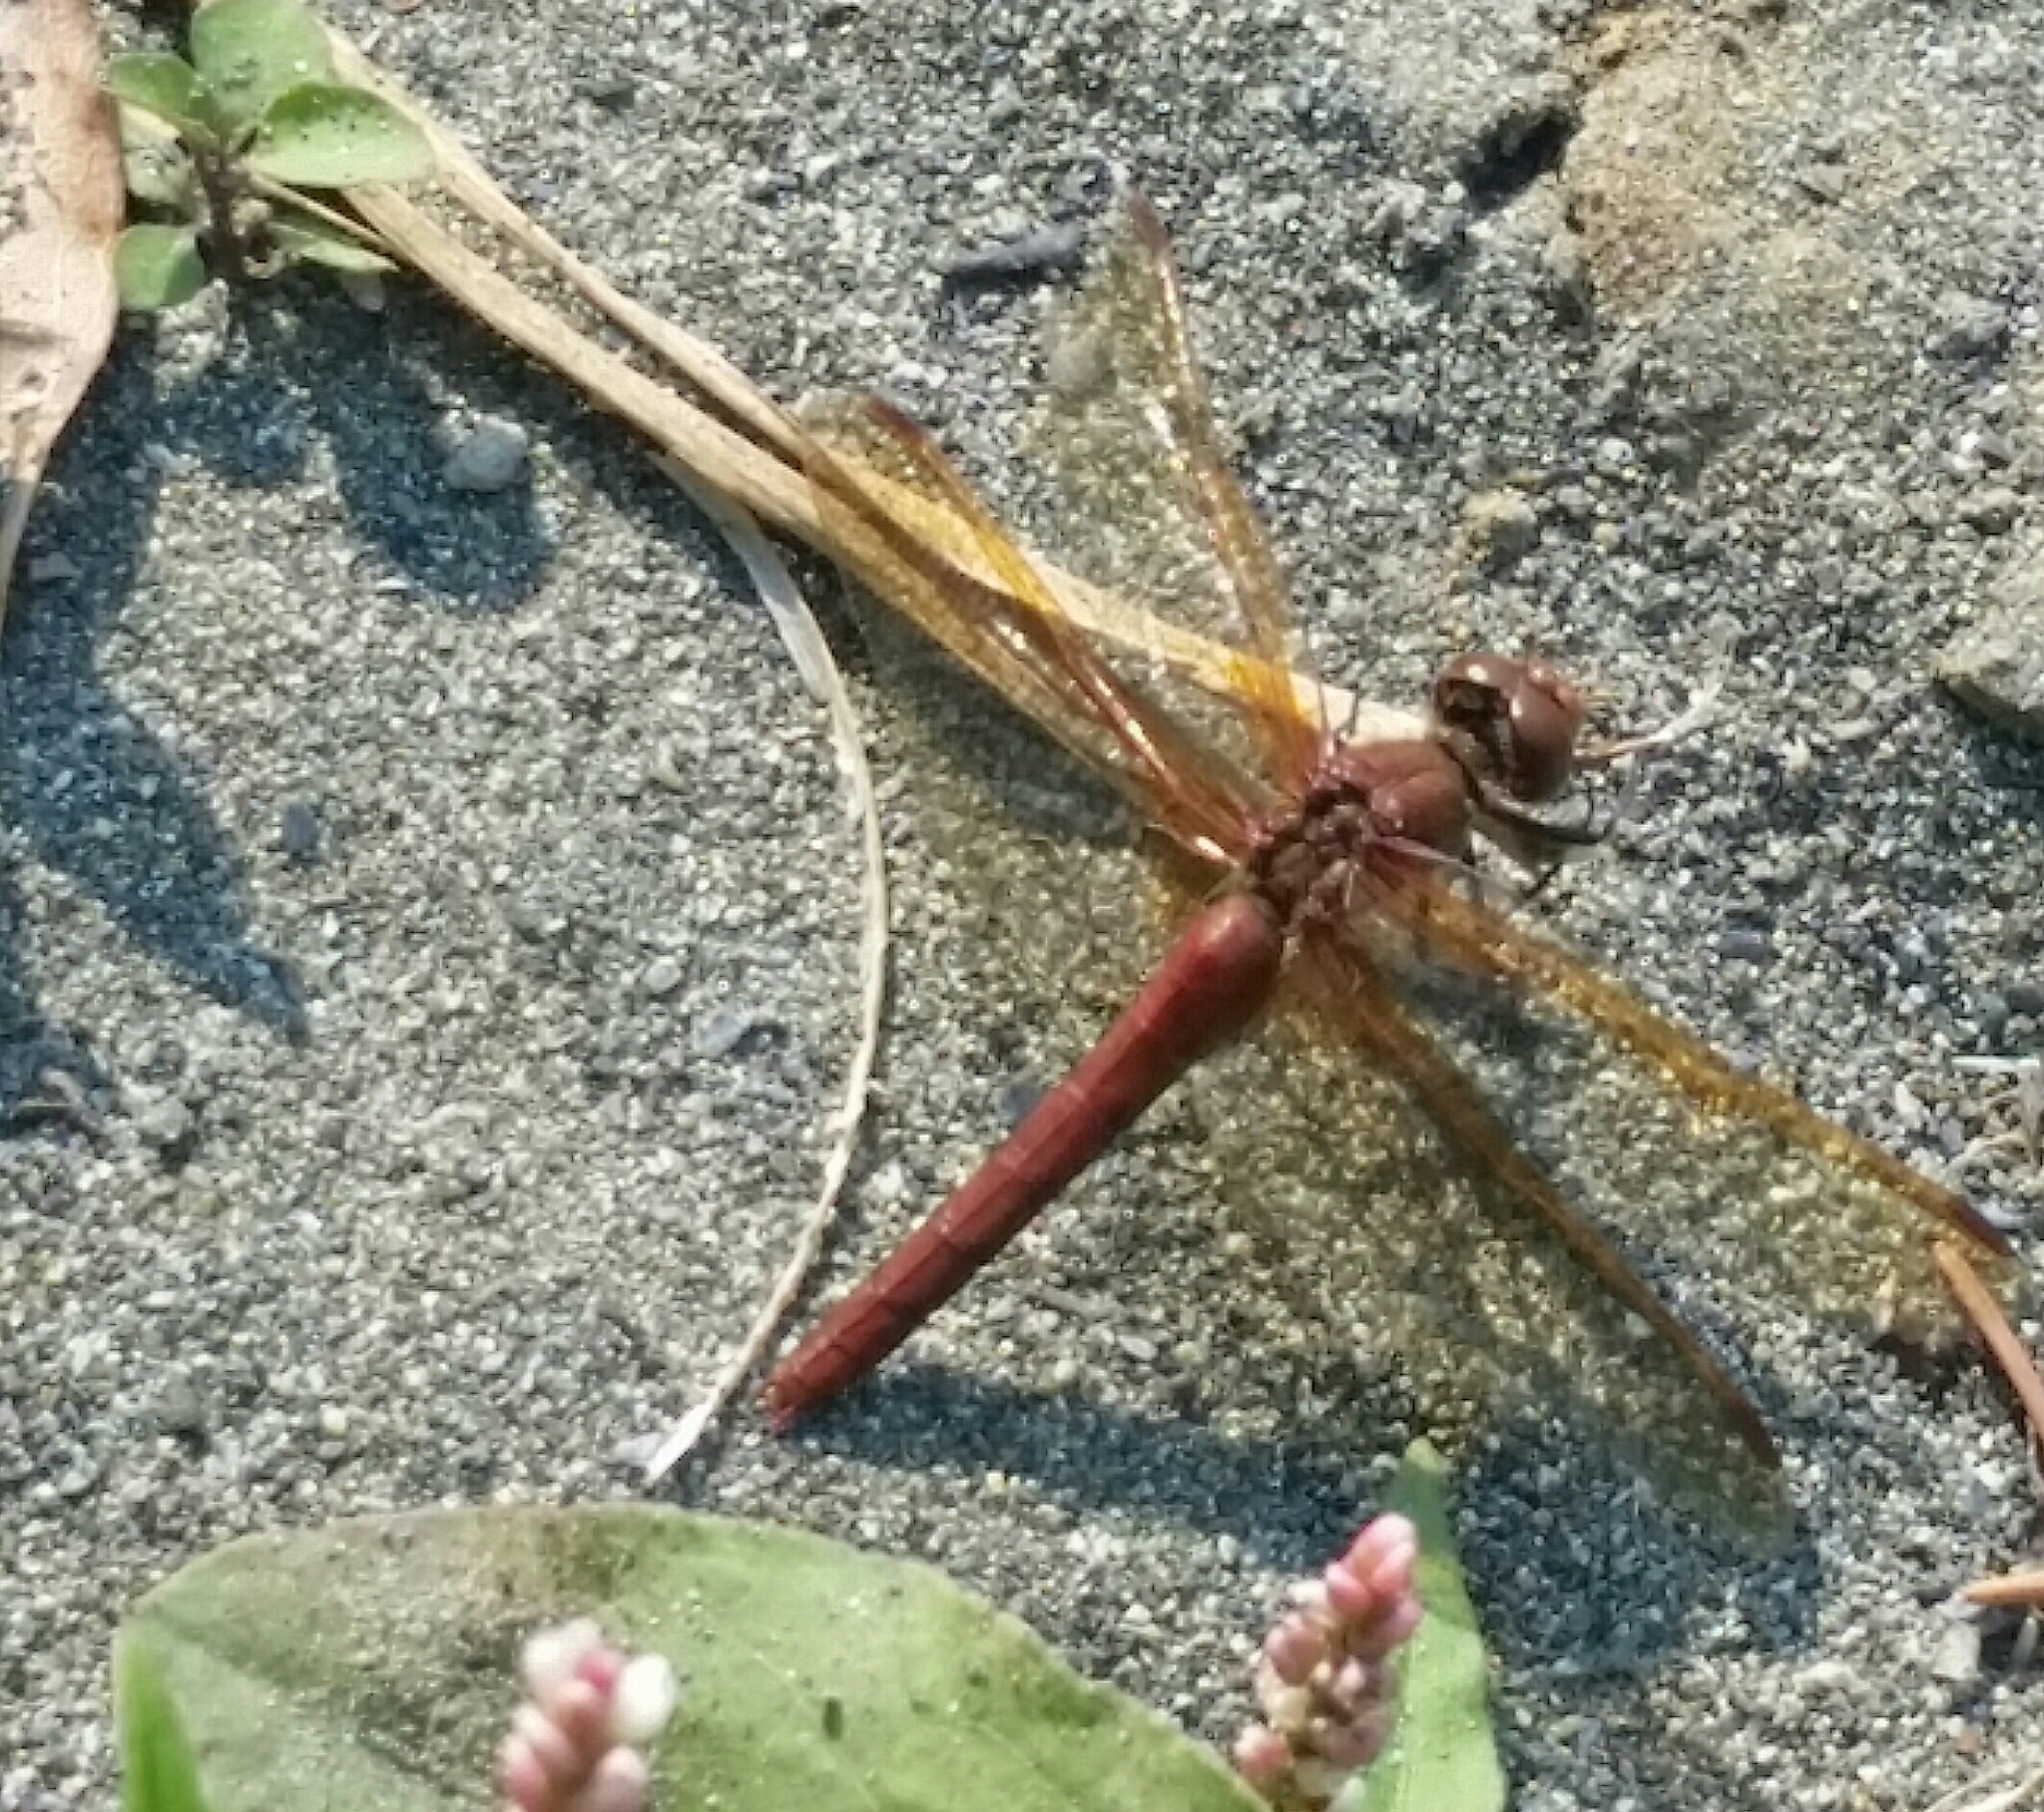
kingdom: Animalia
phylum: Arthropoda
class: Insecta
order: Odonata
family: Libellulidae
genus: Sympetrum
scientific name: Sympetrum madidum
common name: Red-veined meadowhawk
